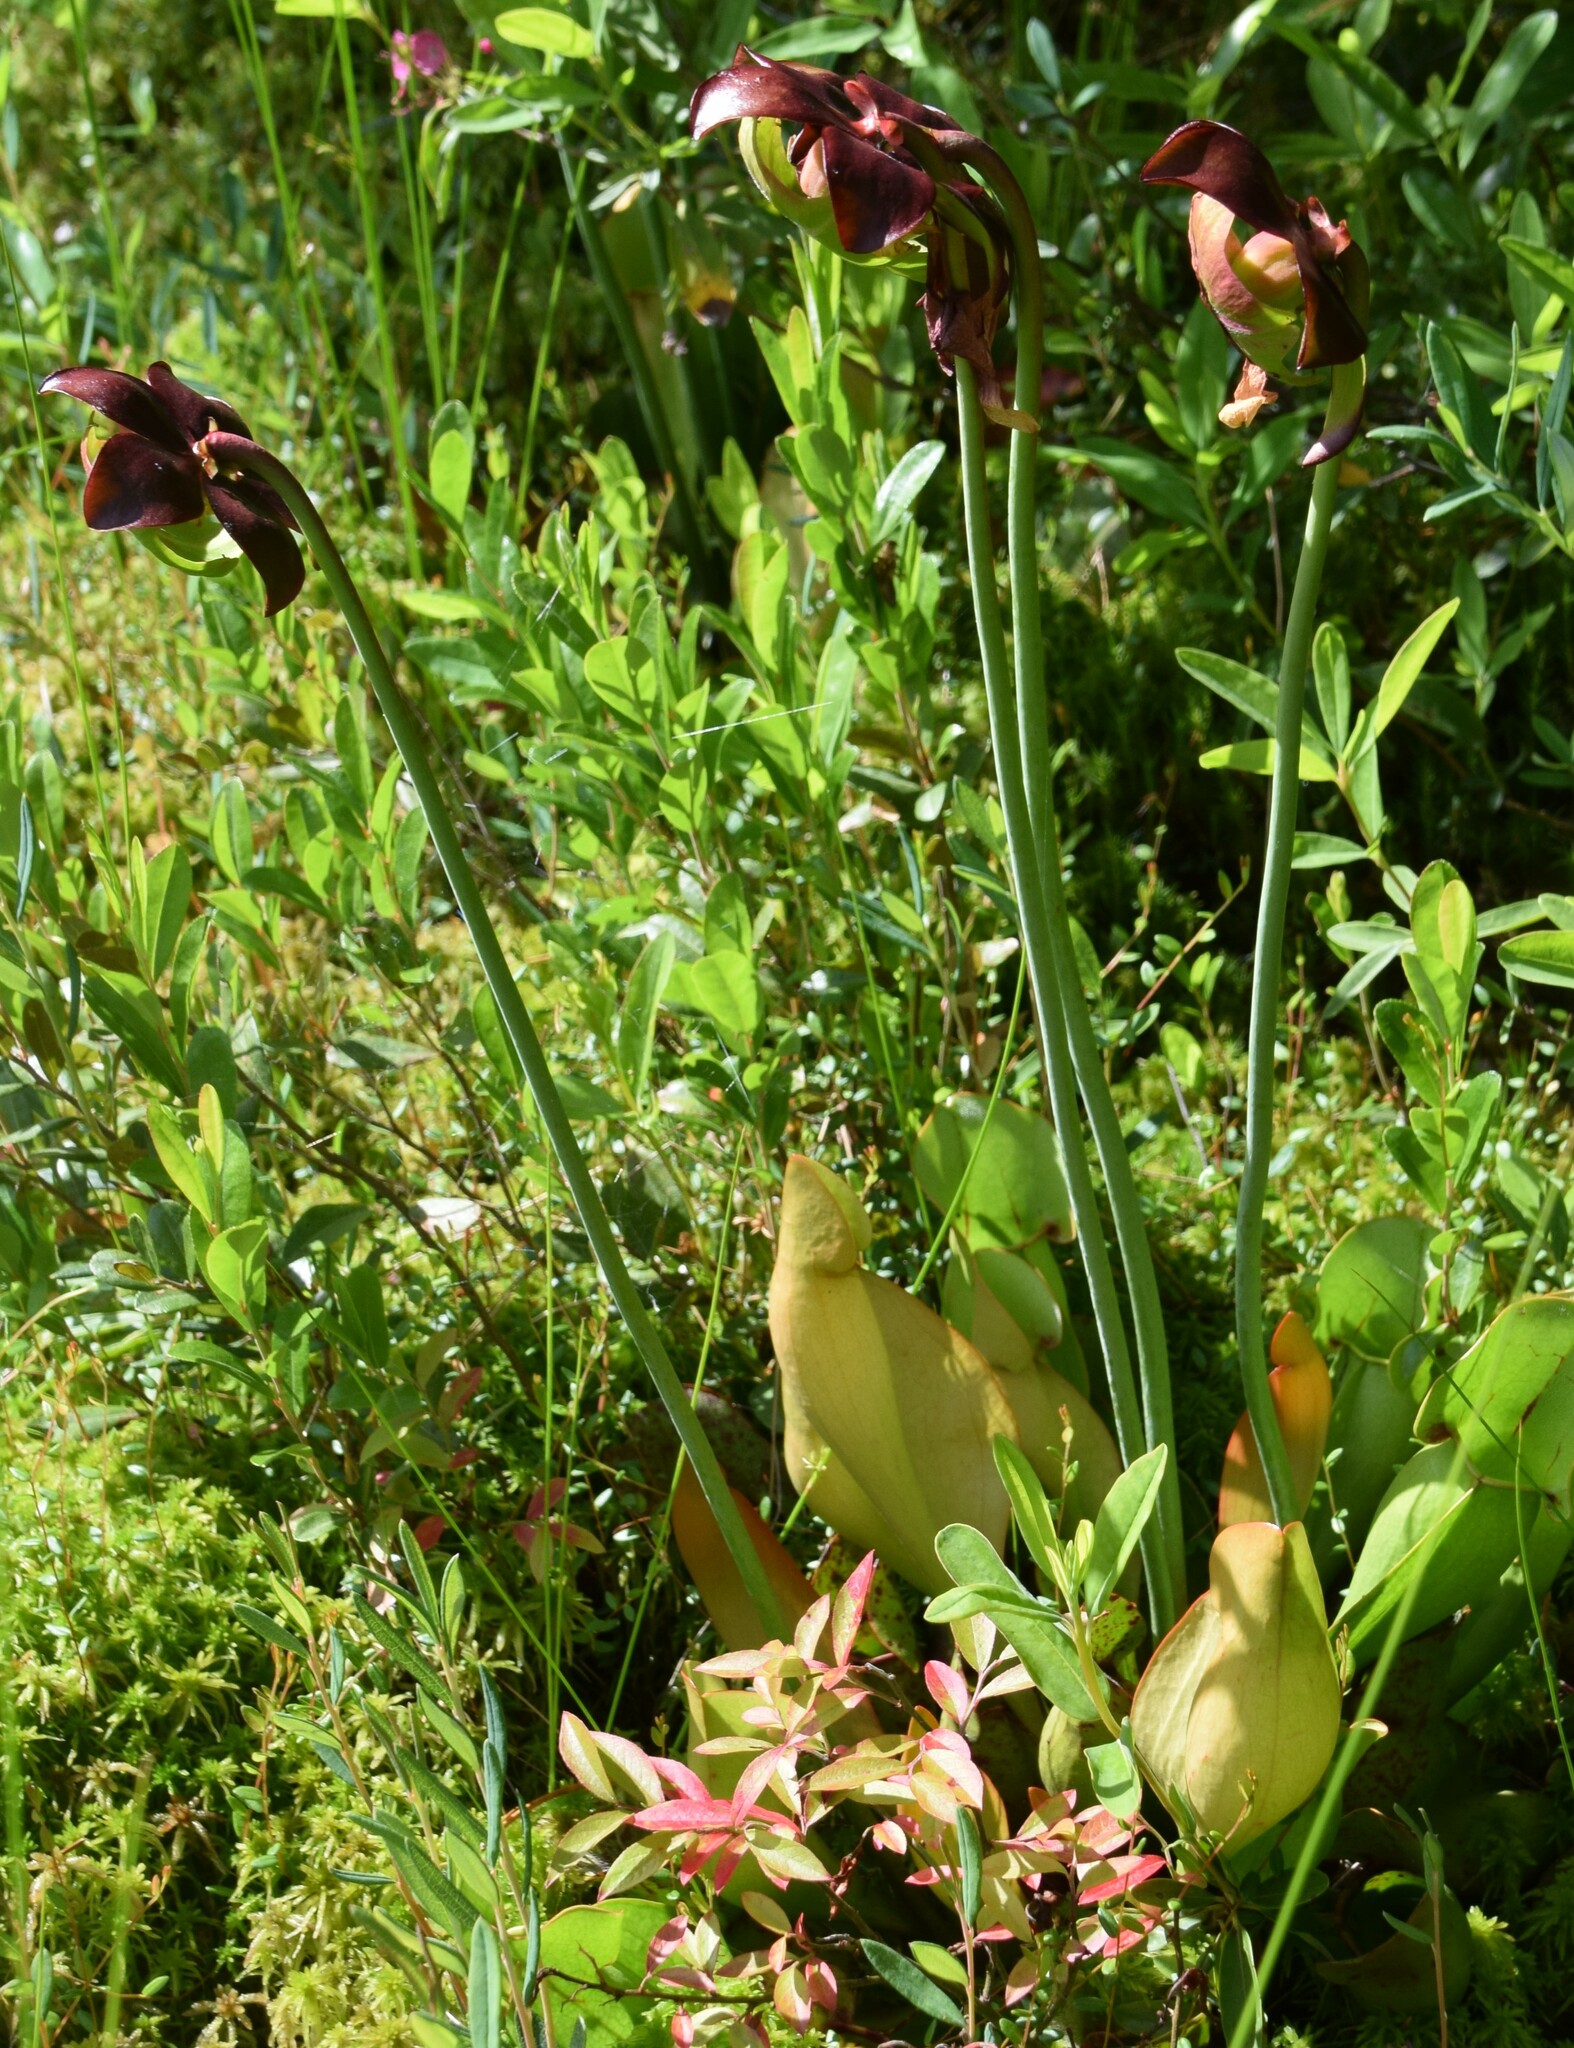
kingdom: Plantae
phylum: Tracheophyta
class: Magnoliopsida
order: Ericales
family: Sarraceniaceae
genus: Sarracenia
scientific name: Sarracenia purpurea
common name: Pitcherplant
